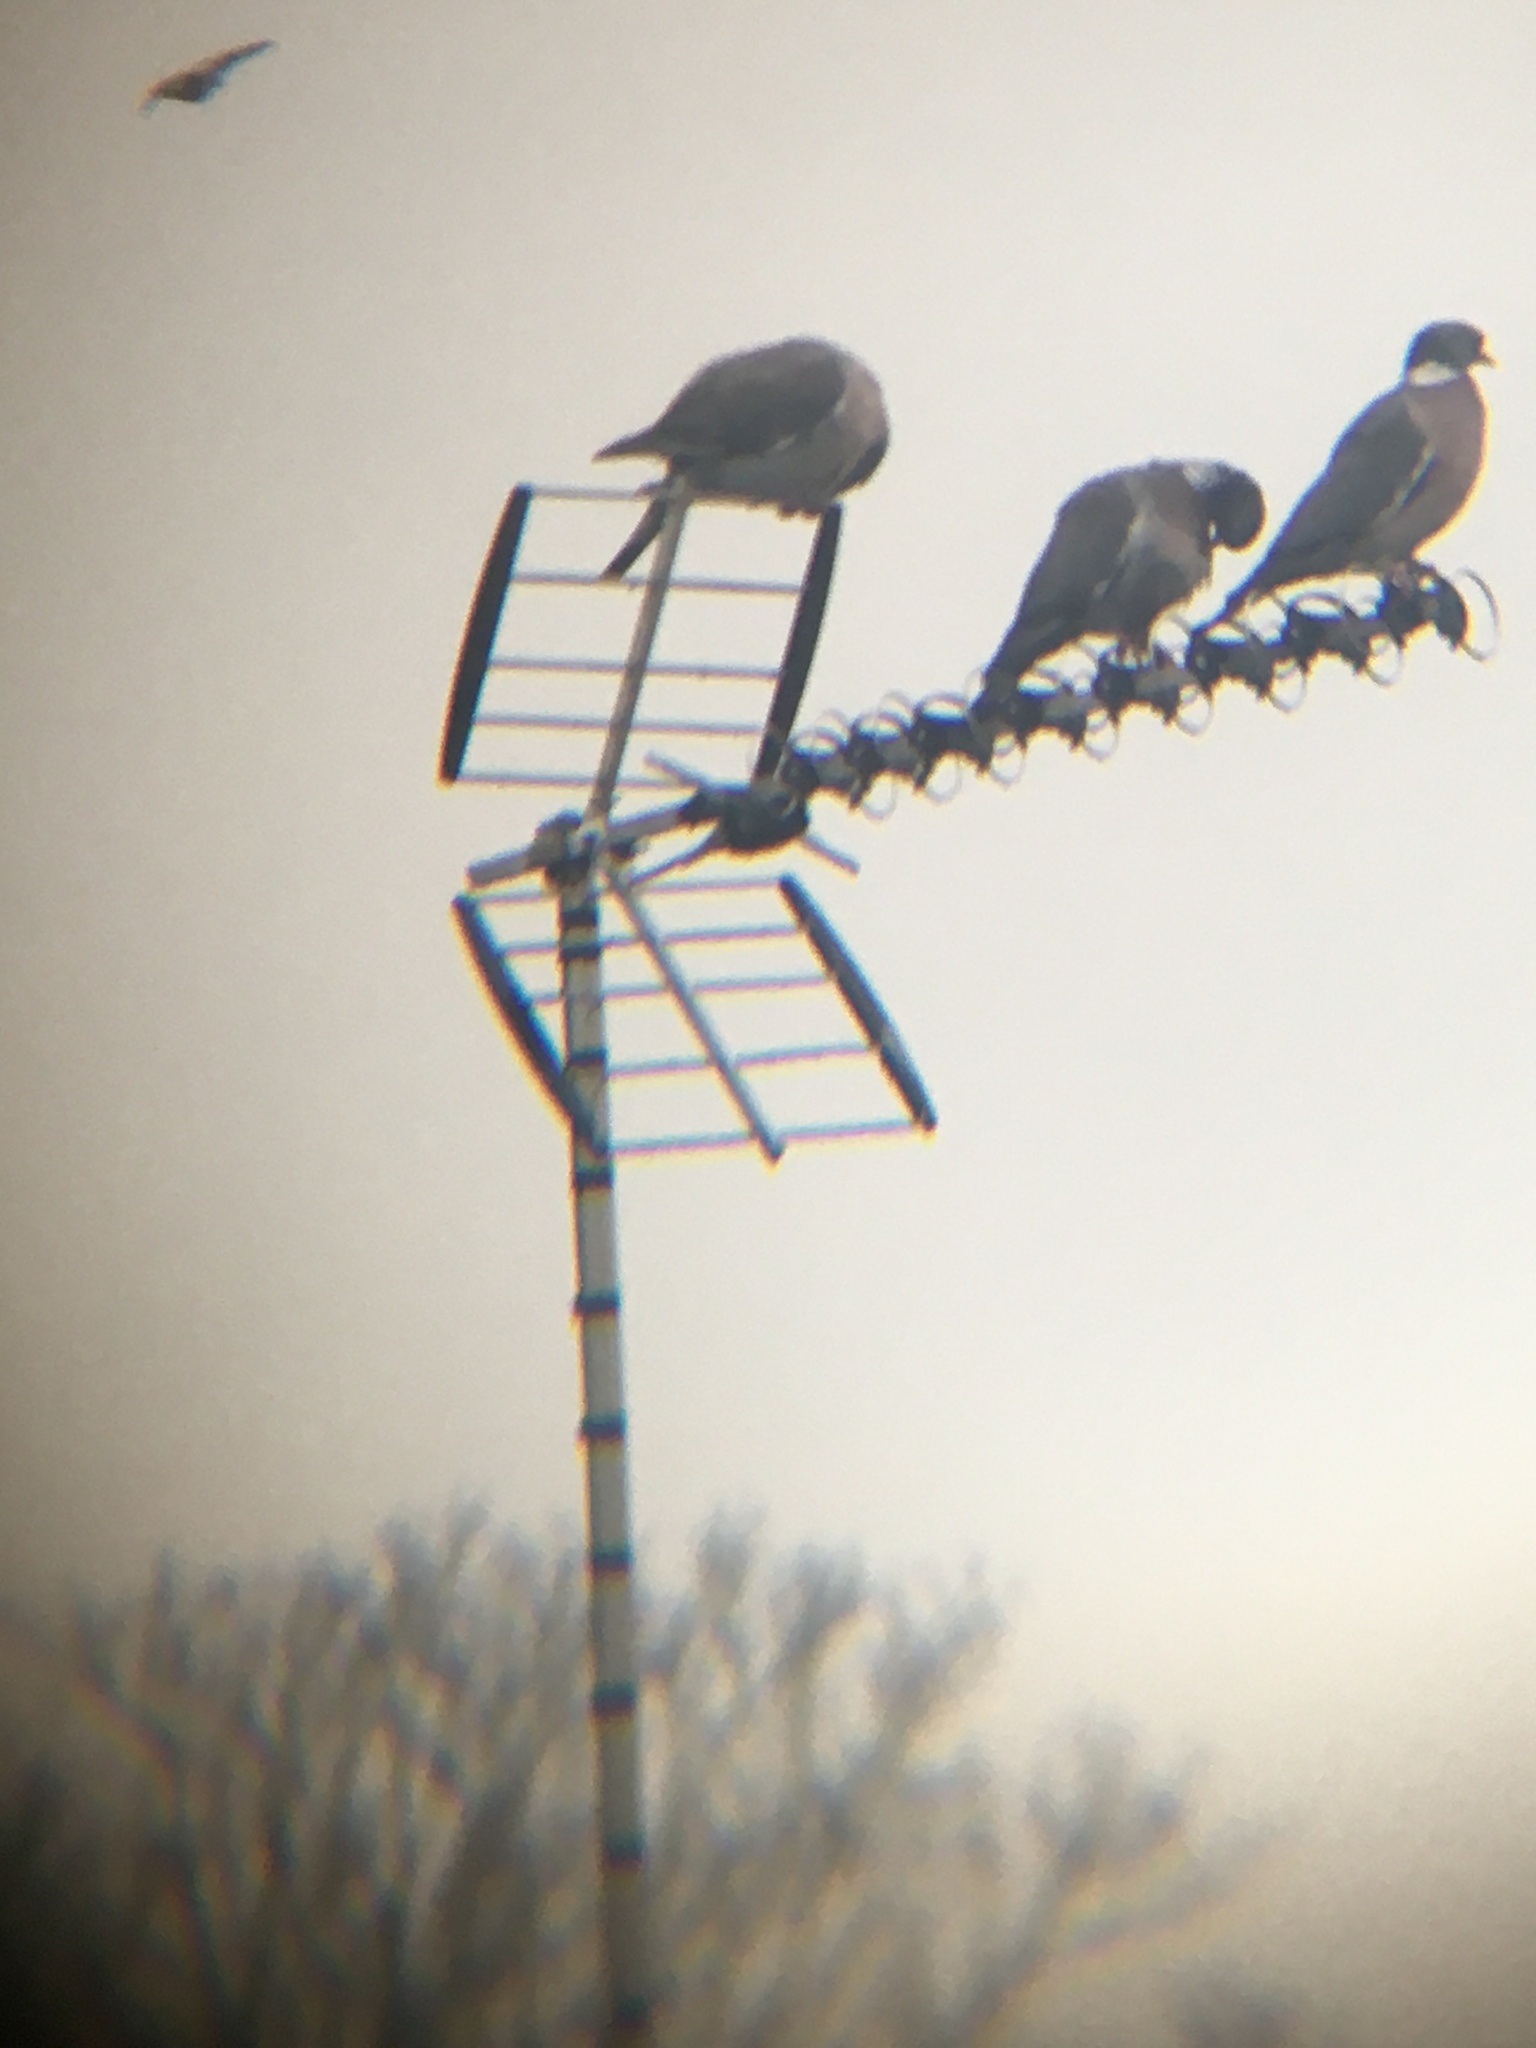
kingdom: Animalia
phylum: Chordata
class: Aves
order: Columbiformes
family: Columbidae
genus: Columba
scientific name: Columba palumbus
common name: Common wood pigeon
